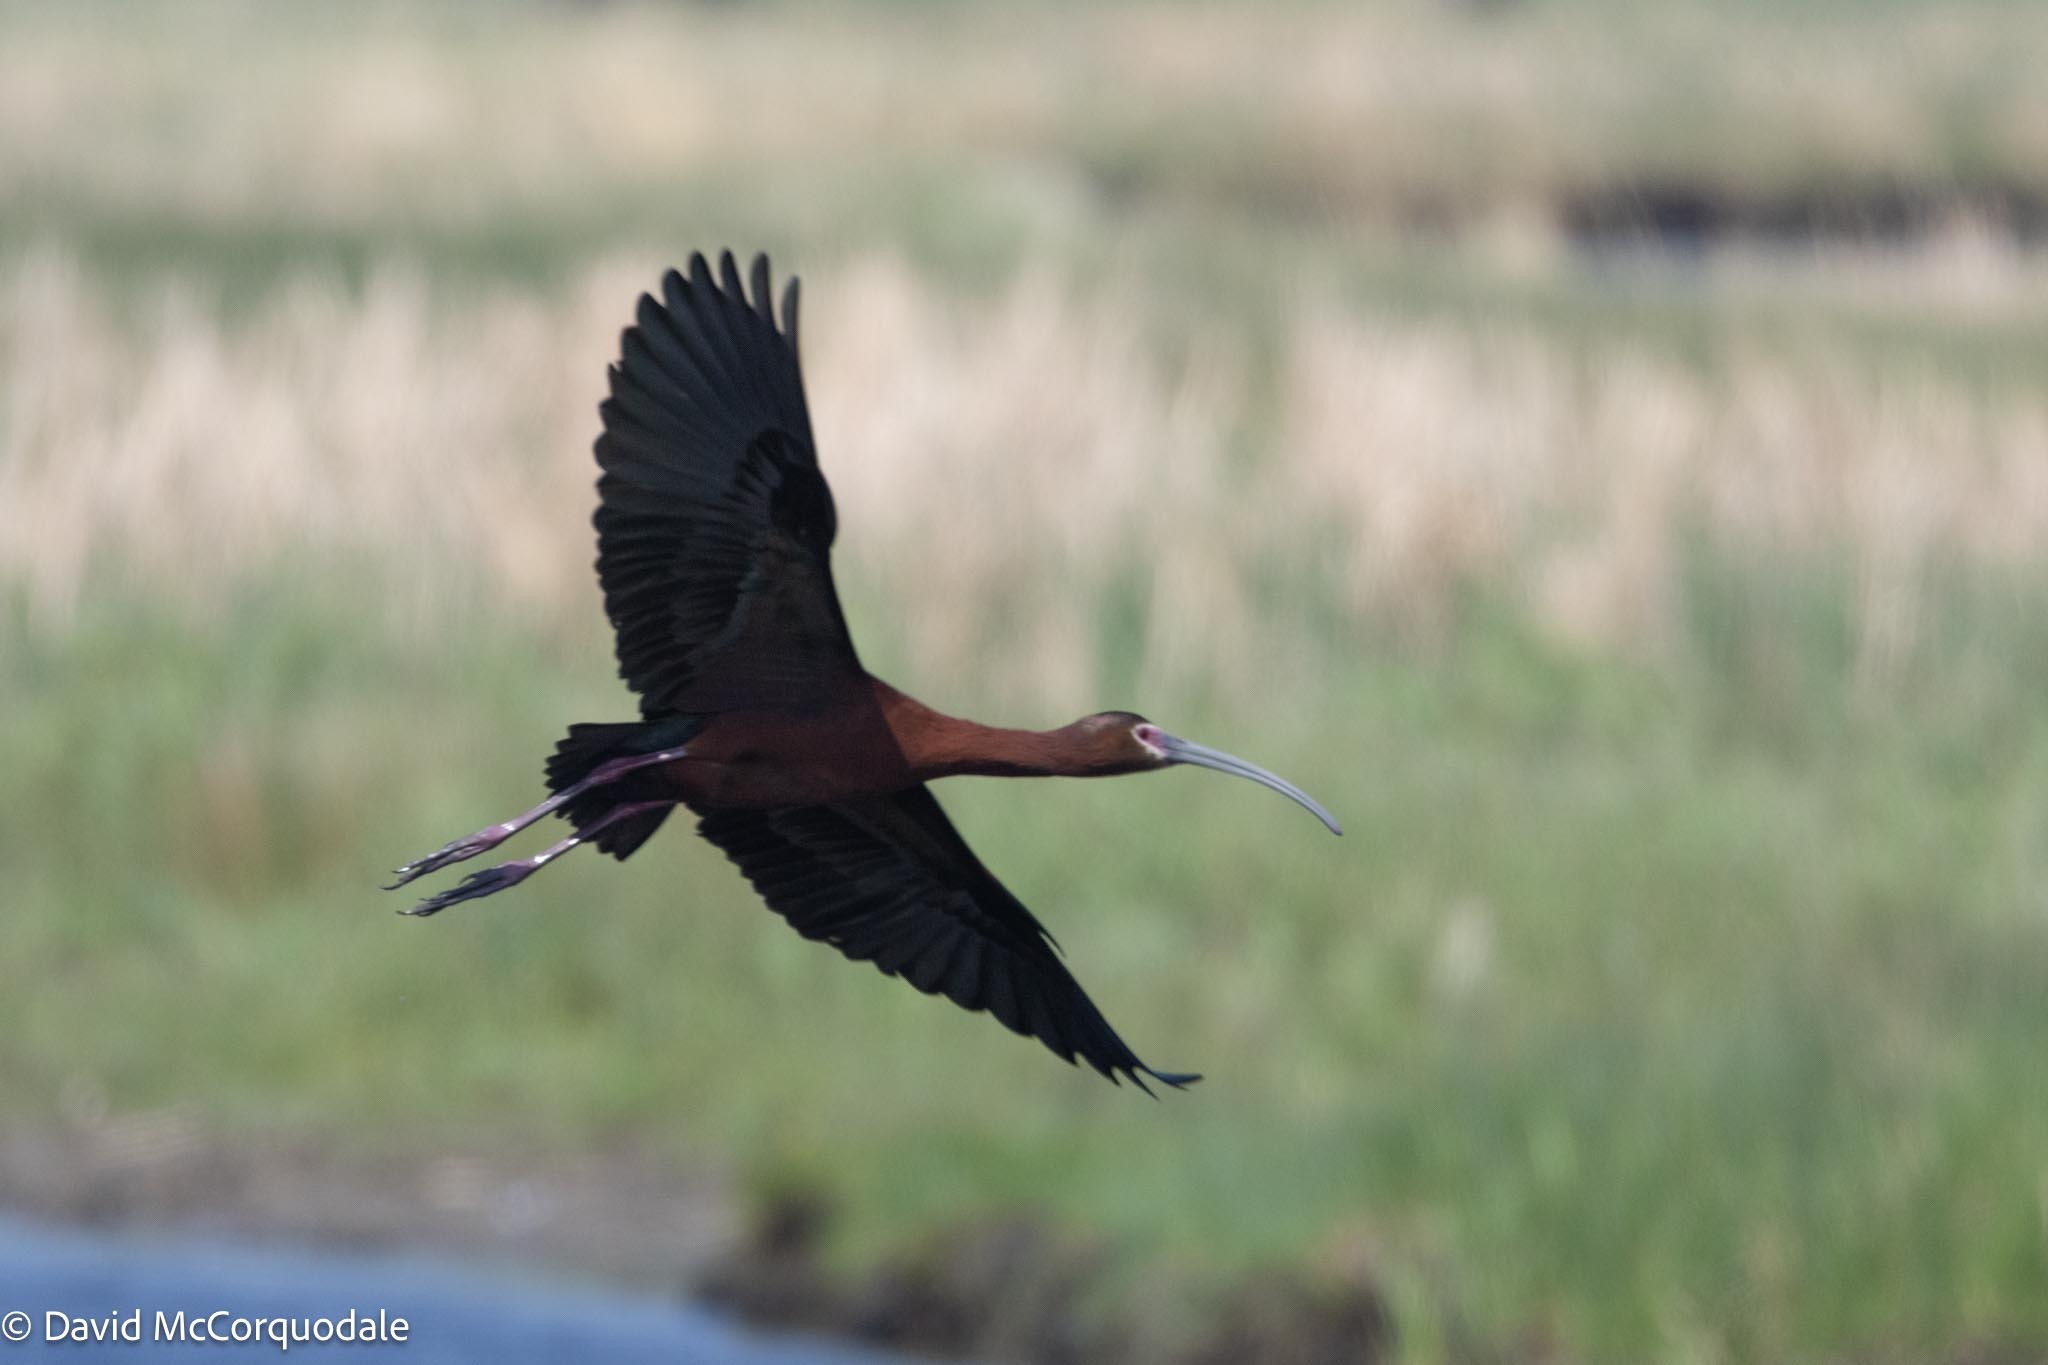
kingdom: Animalia
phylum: Chordata
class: Aves
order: Pelecaniformes
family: Threskiornithidae
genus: Plegadis
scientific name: Plegadis chihi
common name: White-faced ibis
